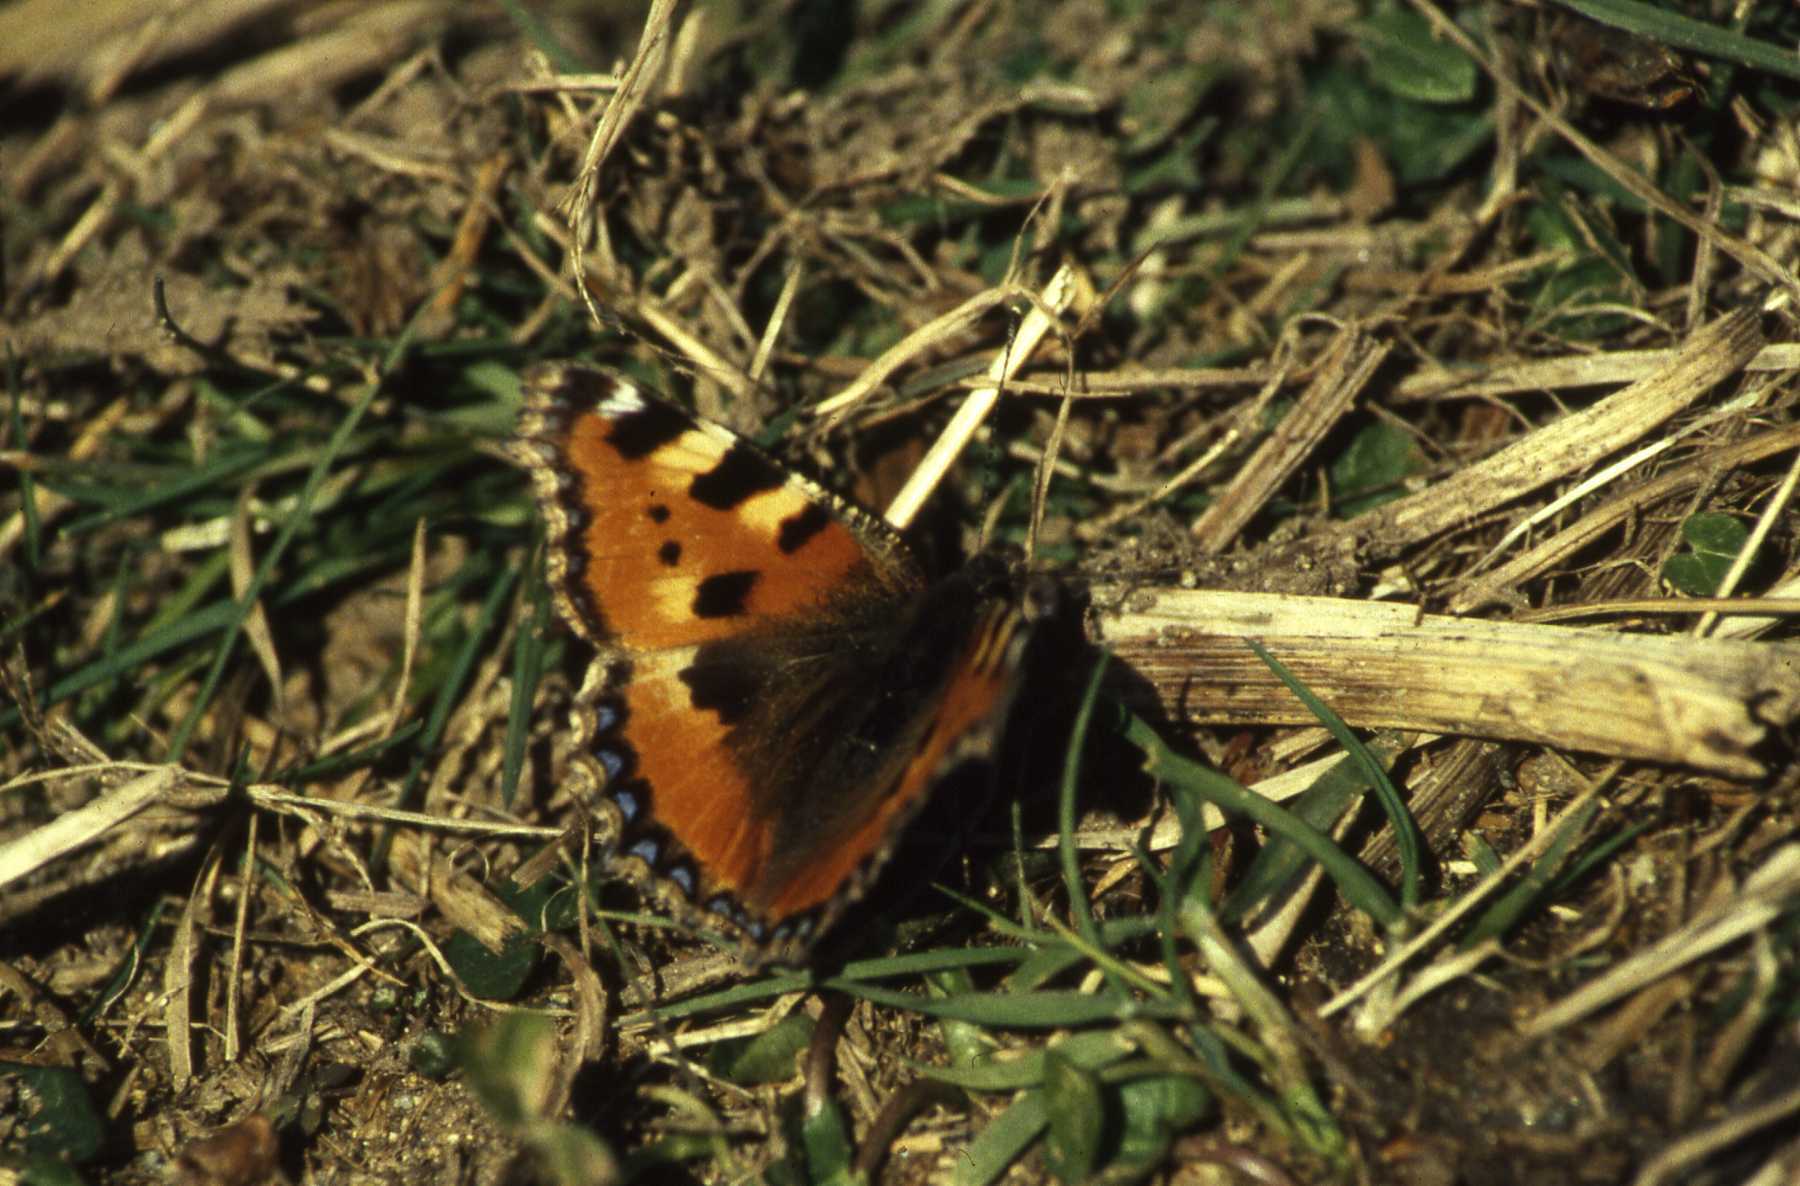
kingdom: Animalia
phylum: Arthropoda
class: Insecta
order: Lepidoptera
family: Nymphalidae
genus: Aglais
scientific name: Aglais urticae
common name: Small tortoiseshell
